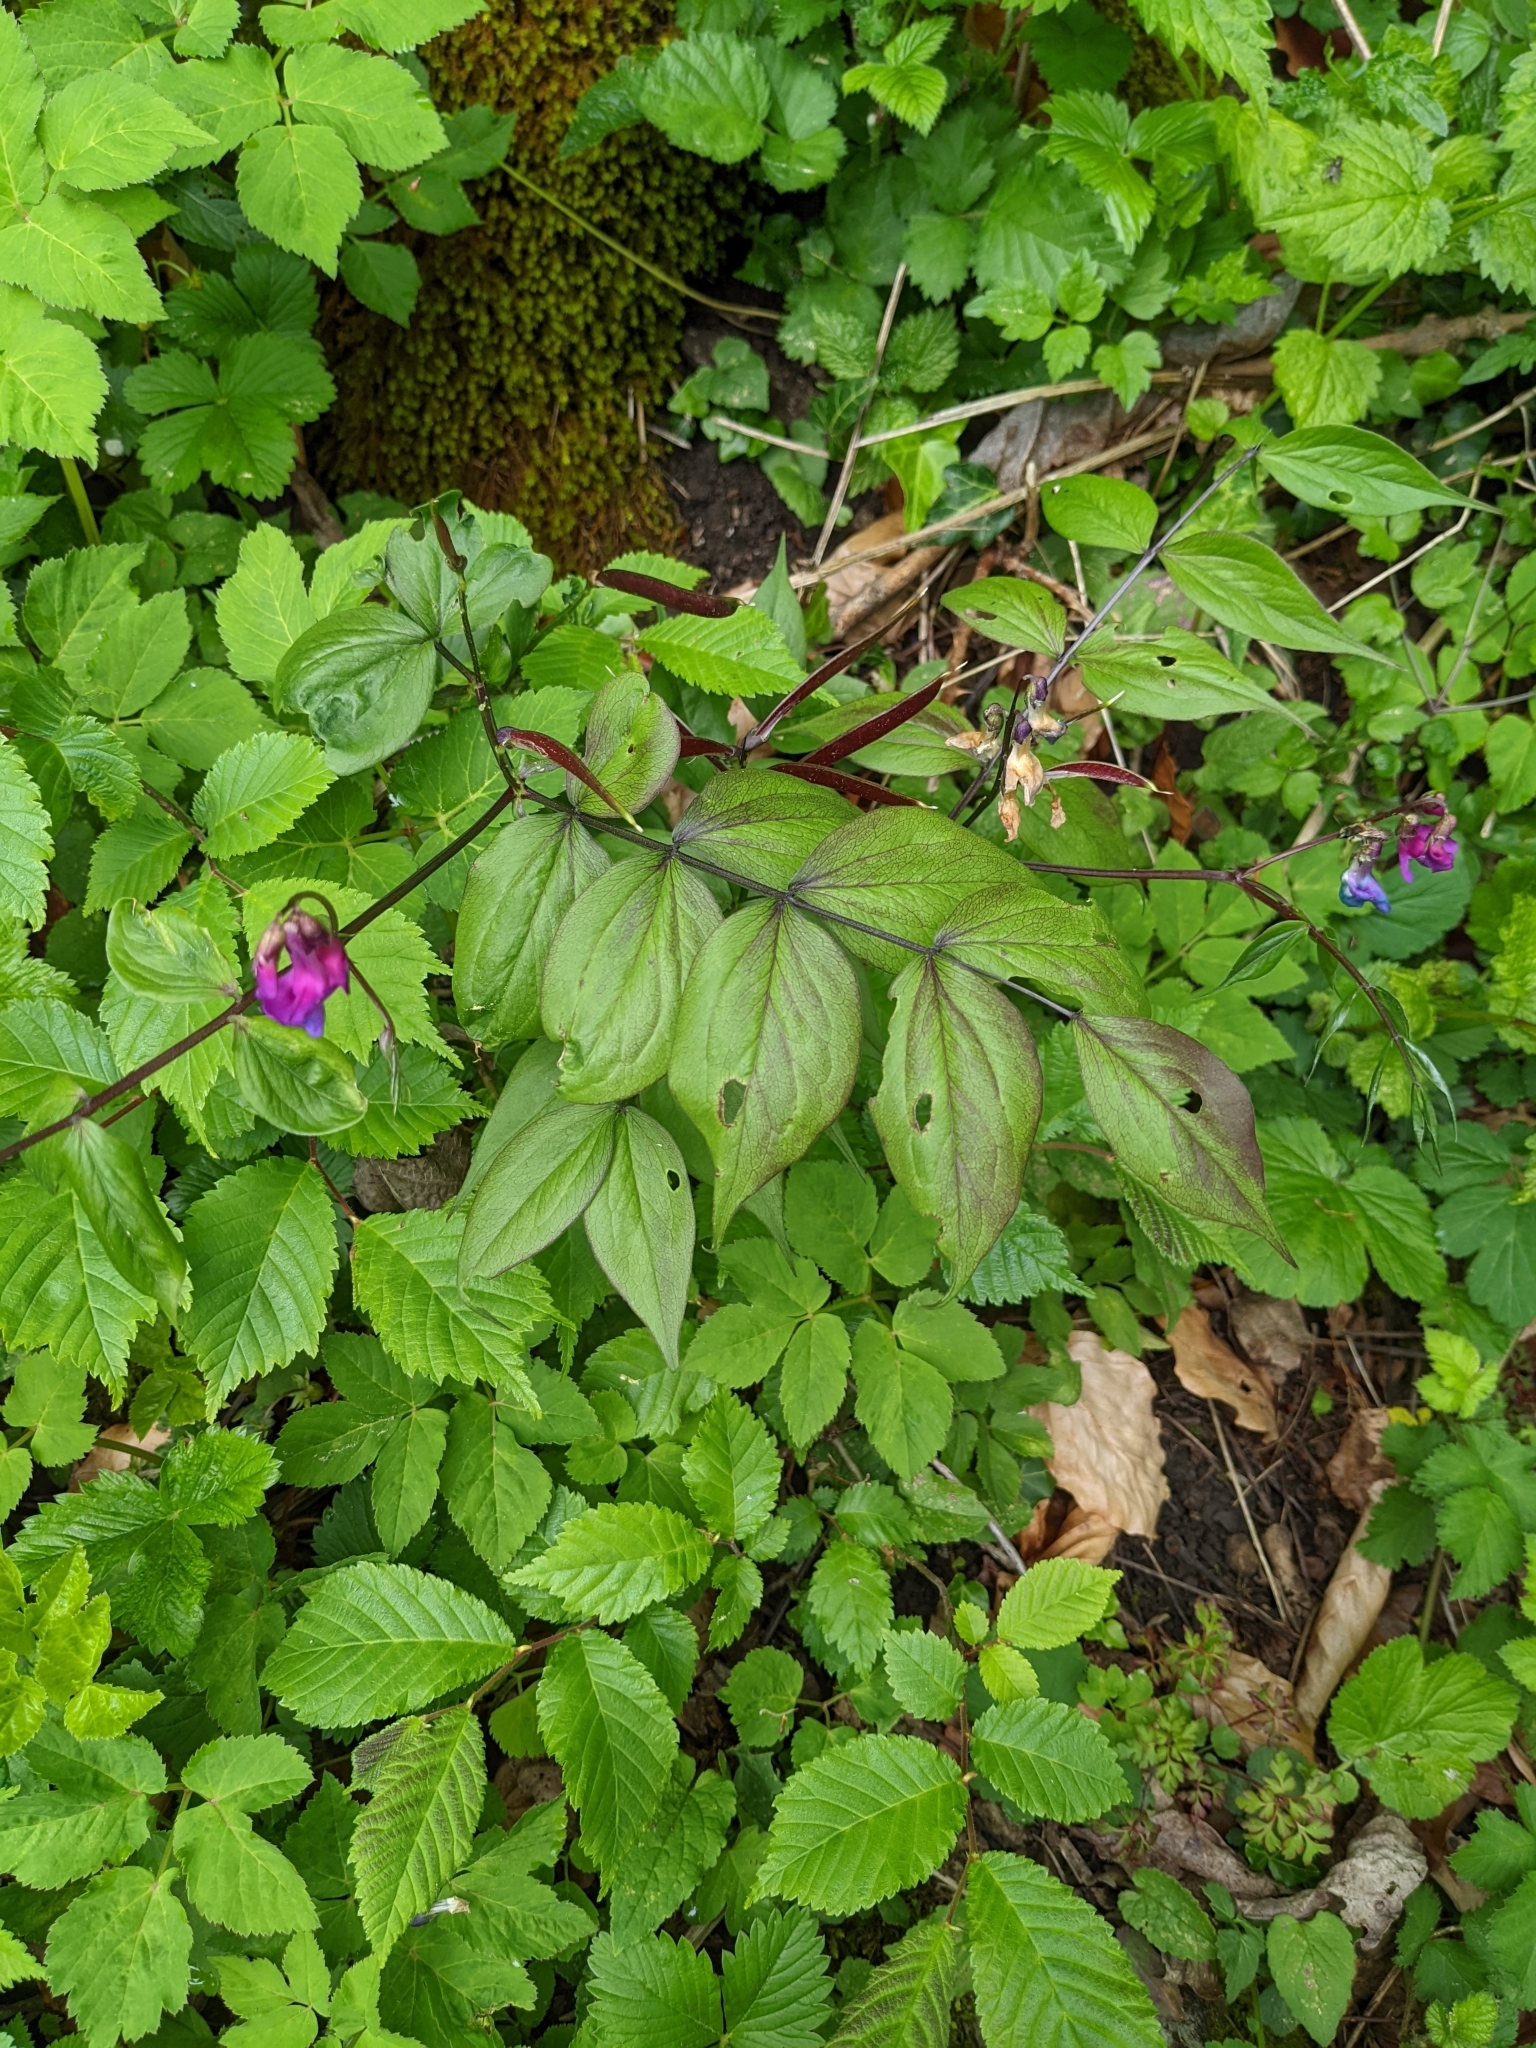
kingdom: Plantae
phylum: Tracheophyta
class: Magnoliopsida
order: Fabales
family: Fabaceae
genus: Lathyrus
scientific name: Lathyrus vernus
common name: Spring pea
